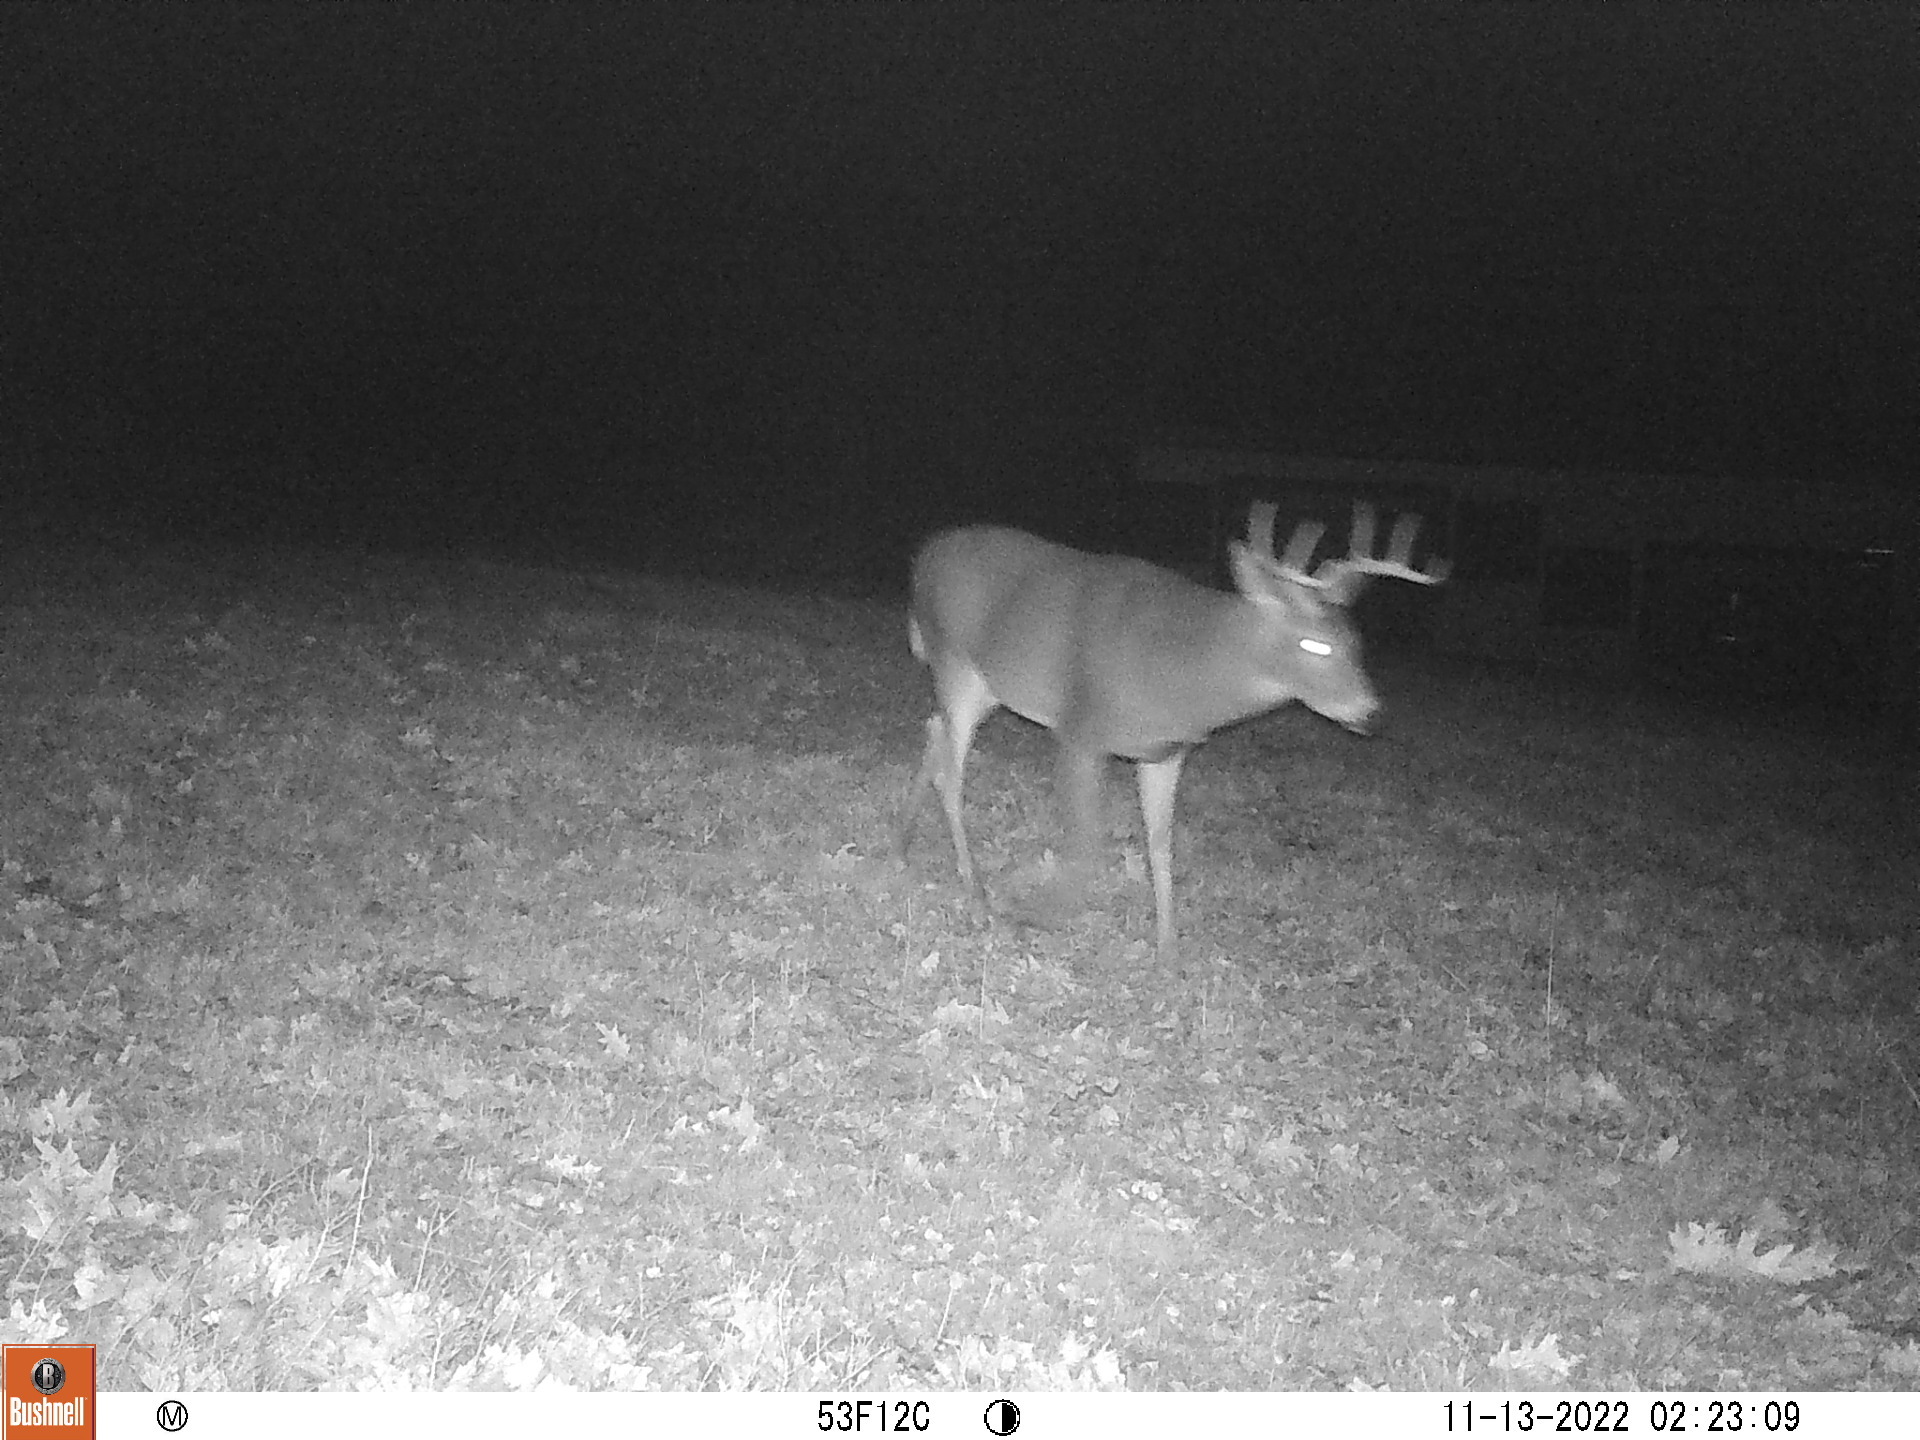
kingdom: Animalia
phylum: Chordata
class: Mammalia
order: Artiodactyla
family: Cervidae
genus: Odocoileus
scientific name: Odocoileus virginianus
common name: White-tailed deer
